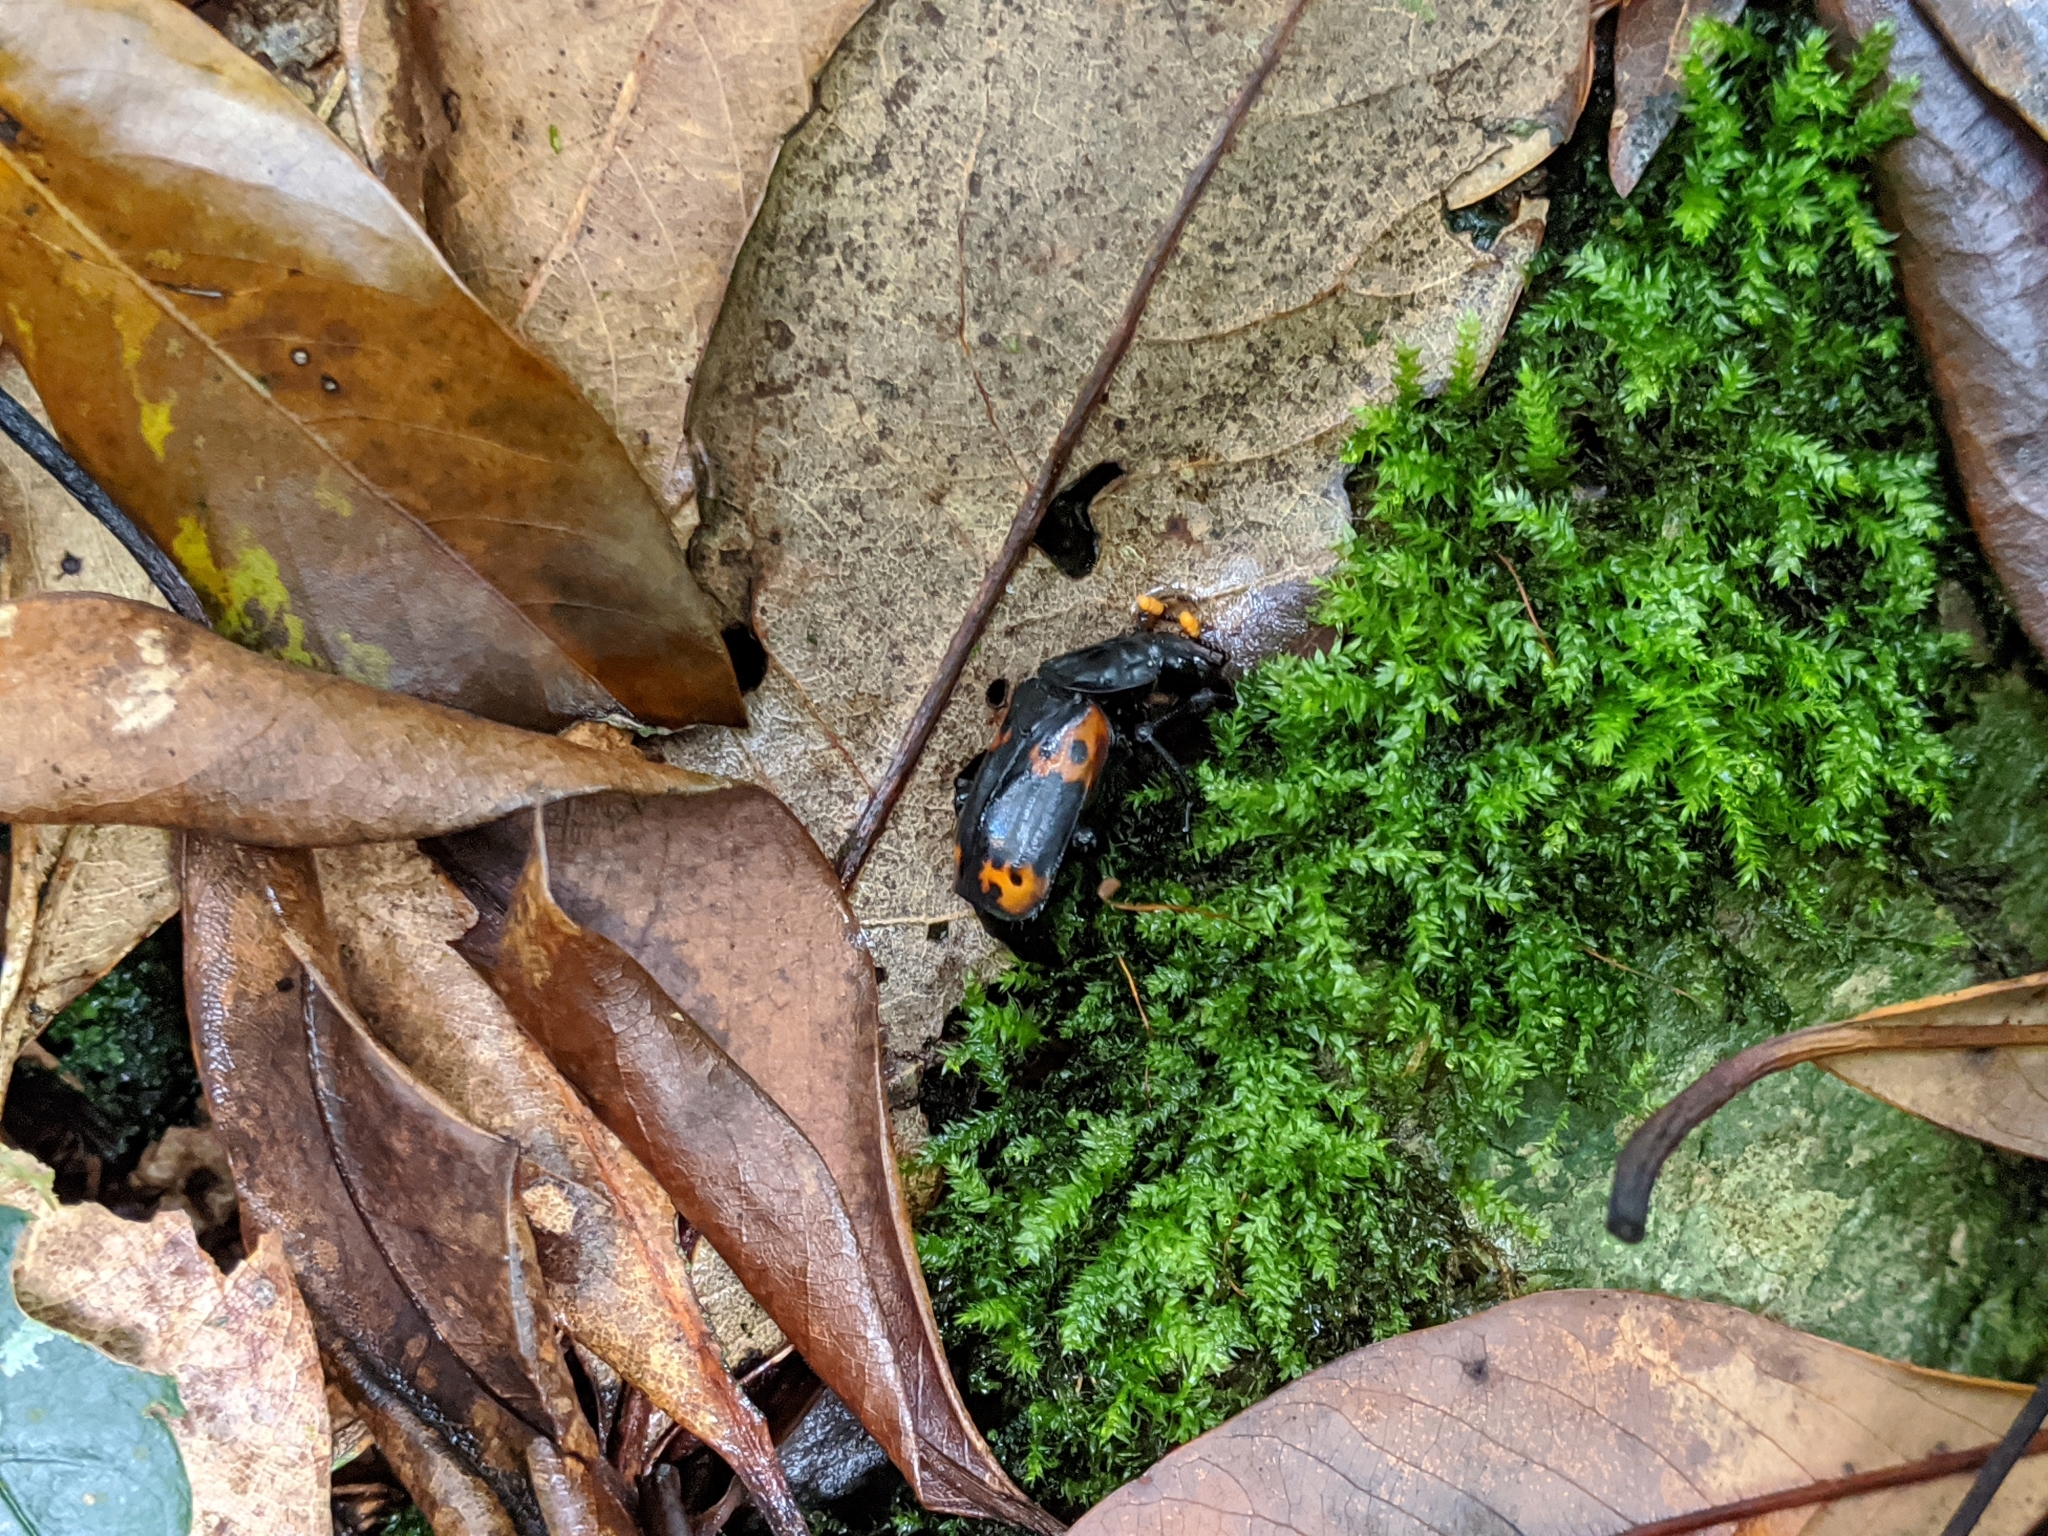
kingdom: Animalia
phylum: Arthropoda
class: Insecta
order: Coleoptera
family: Staphylinidae
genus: Nicrophorus
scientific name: Nicrophorus nepalensis
